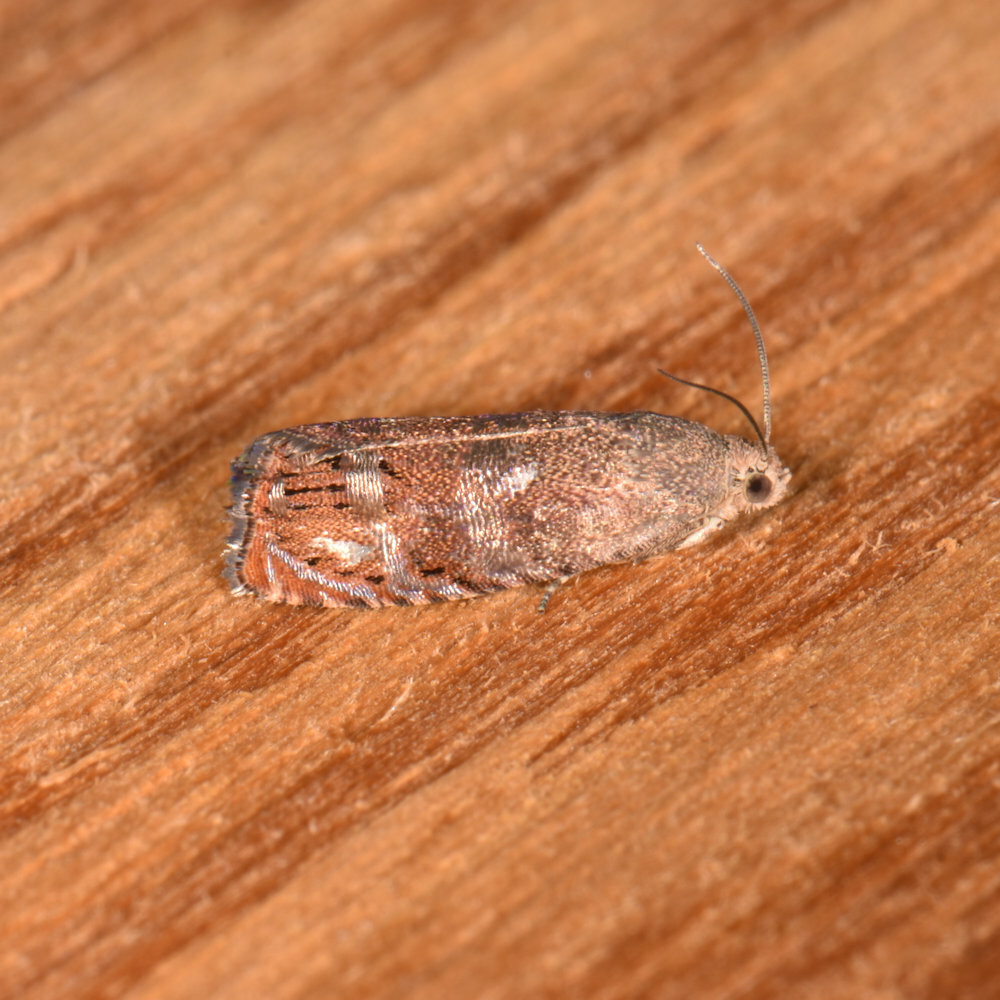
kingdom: Animalia
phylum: Arthropoda
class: Insecta
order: Lepidoptera
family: Tortricidae
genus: Cydia
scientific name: Cydia latiferreana
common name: Filbertworm moth
